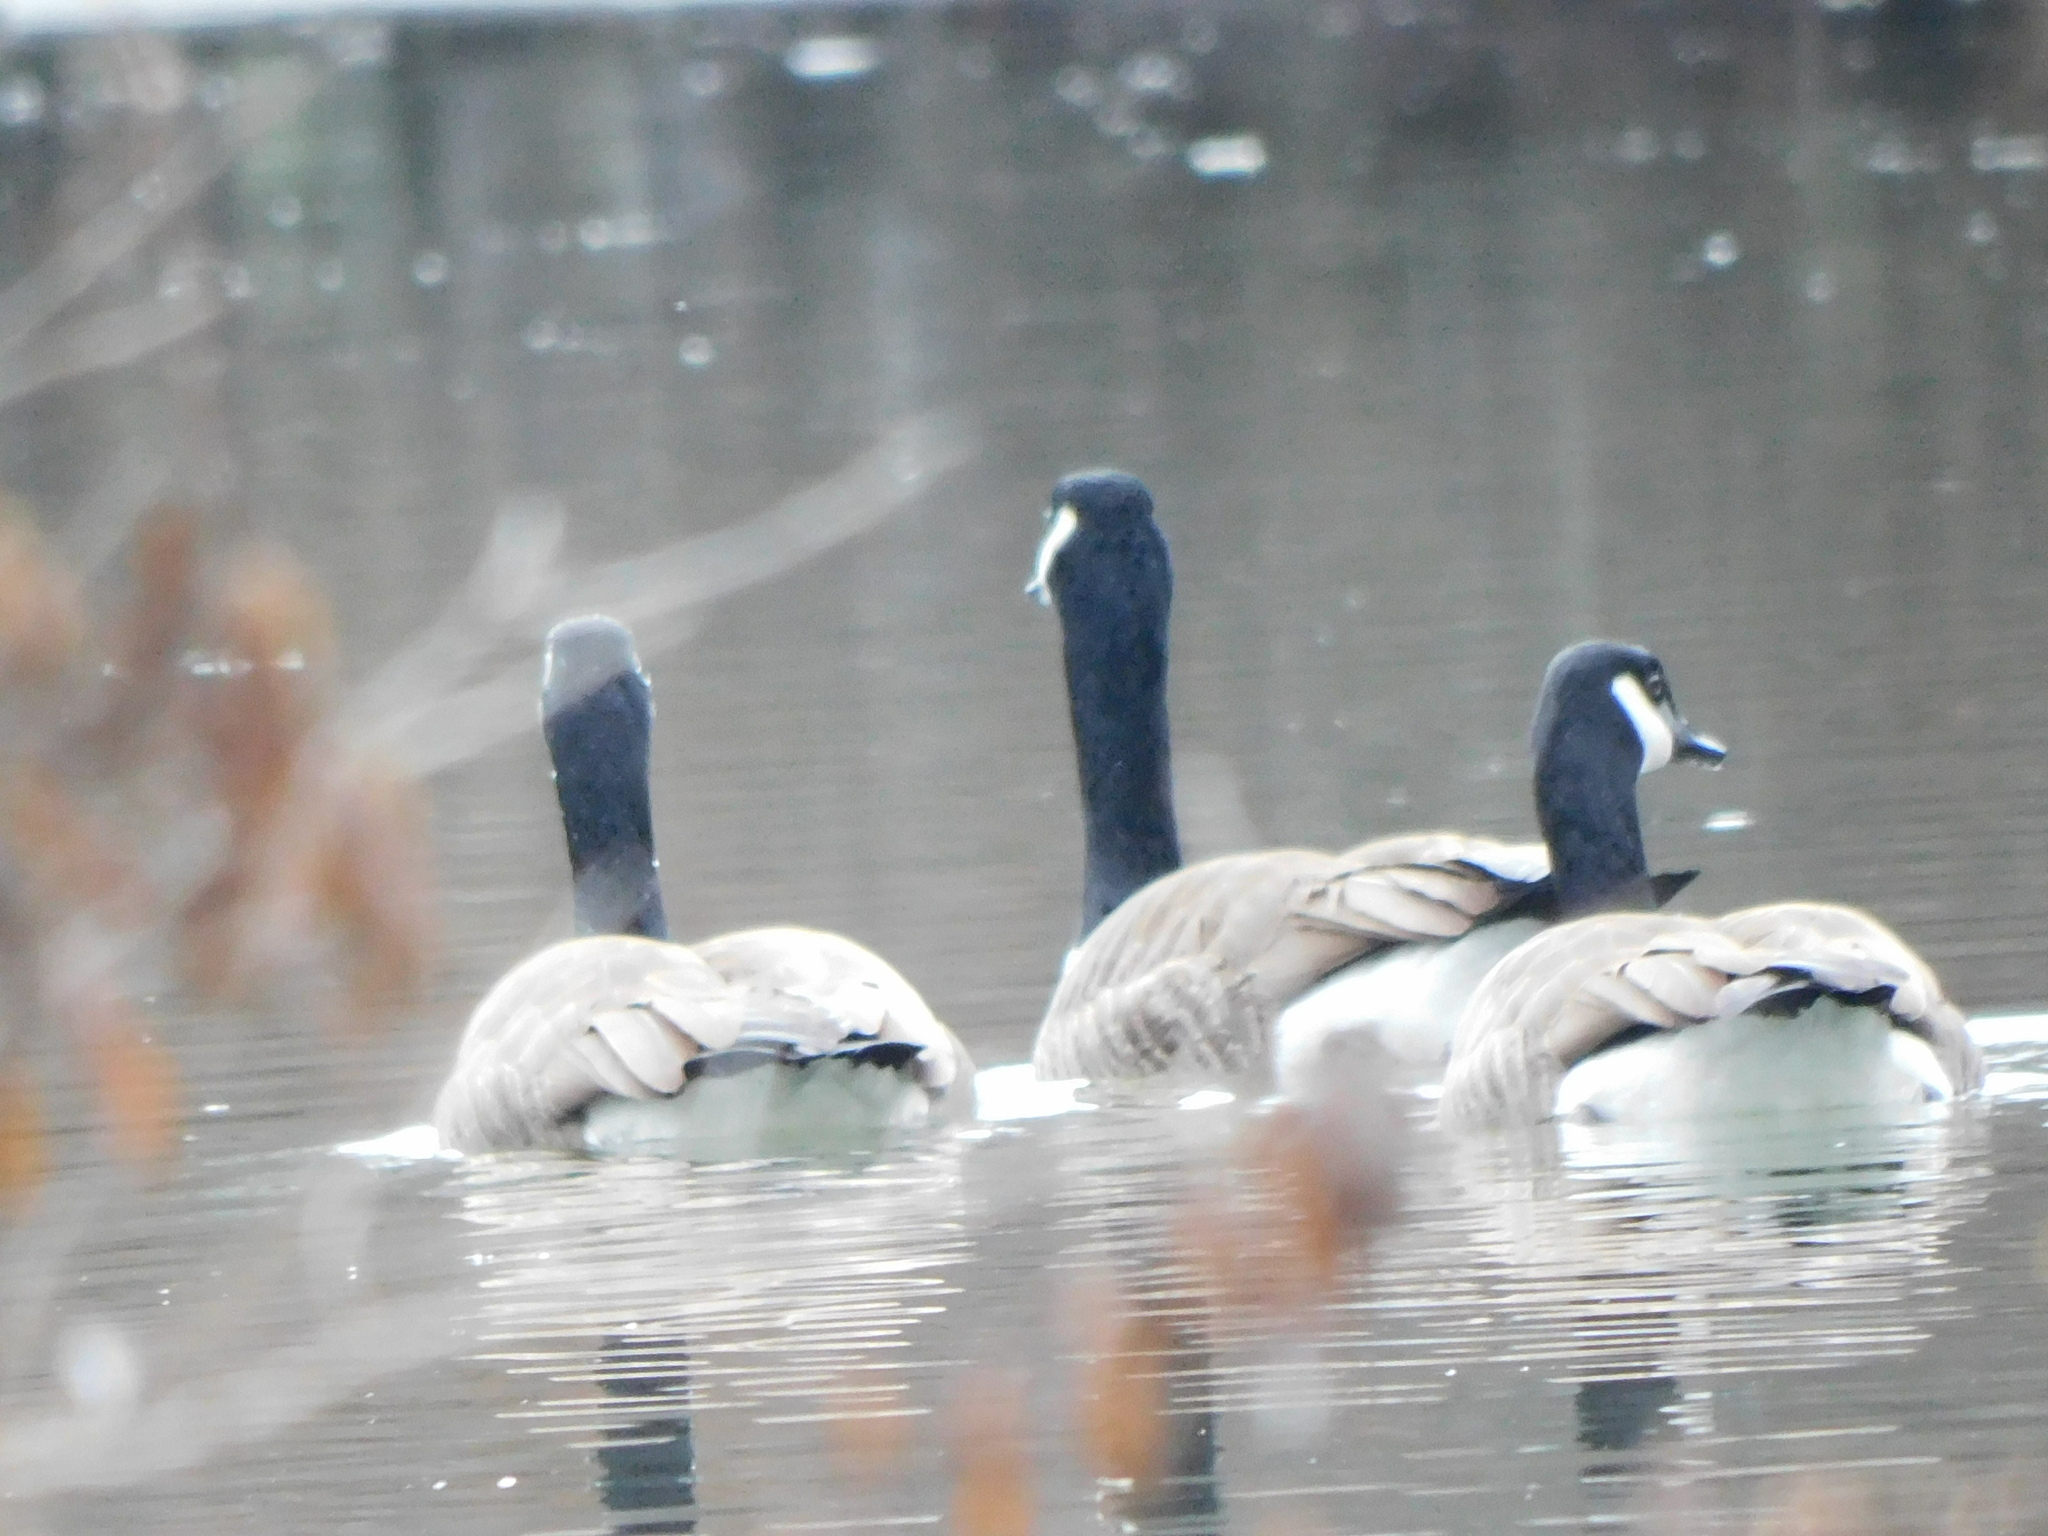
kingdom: Animalia
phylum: Chordata
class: Aves
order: Anseriformes
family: Anatidae
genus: Branta
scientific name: Branta canadensis
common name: Canada goose
